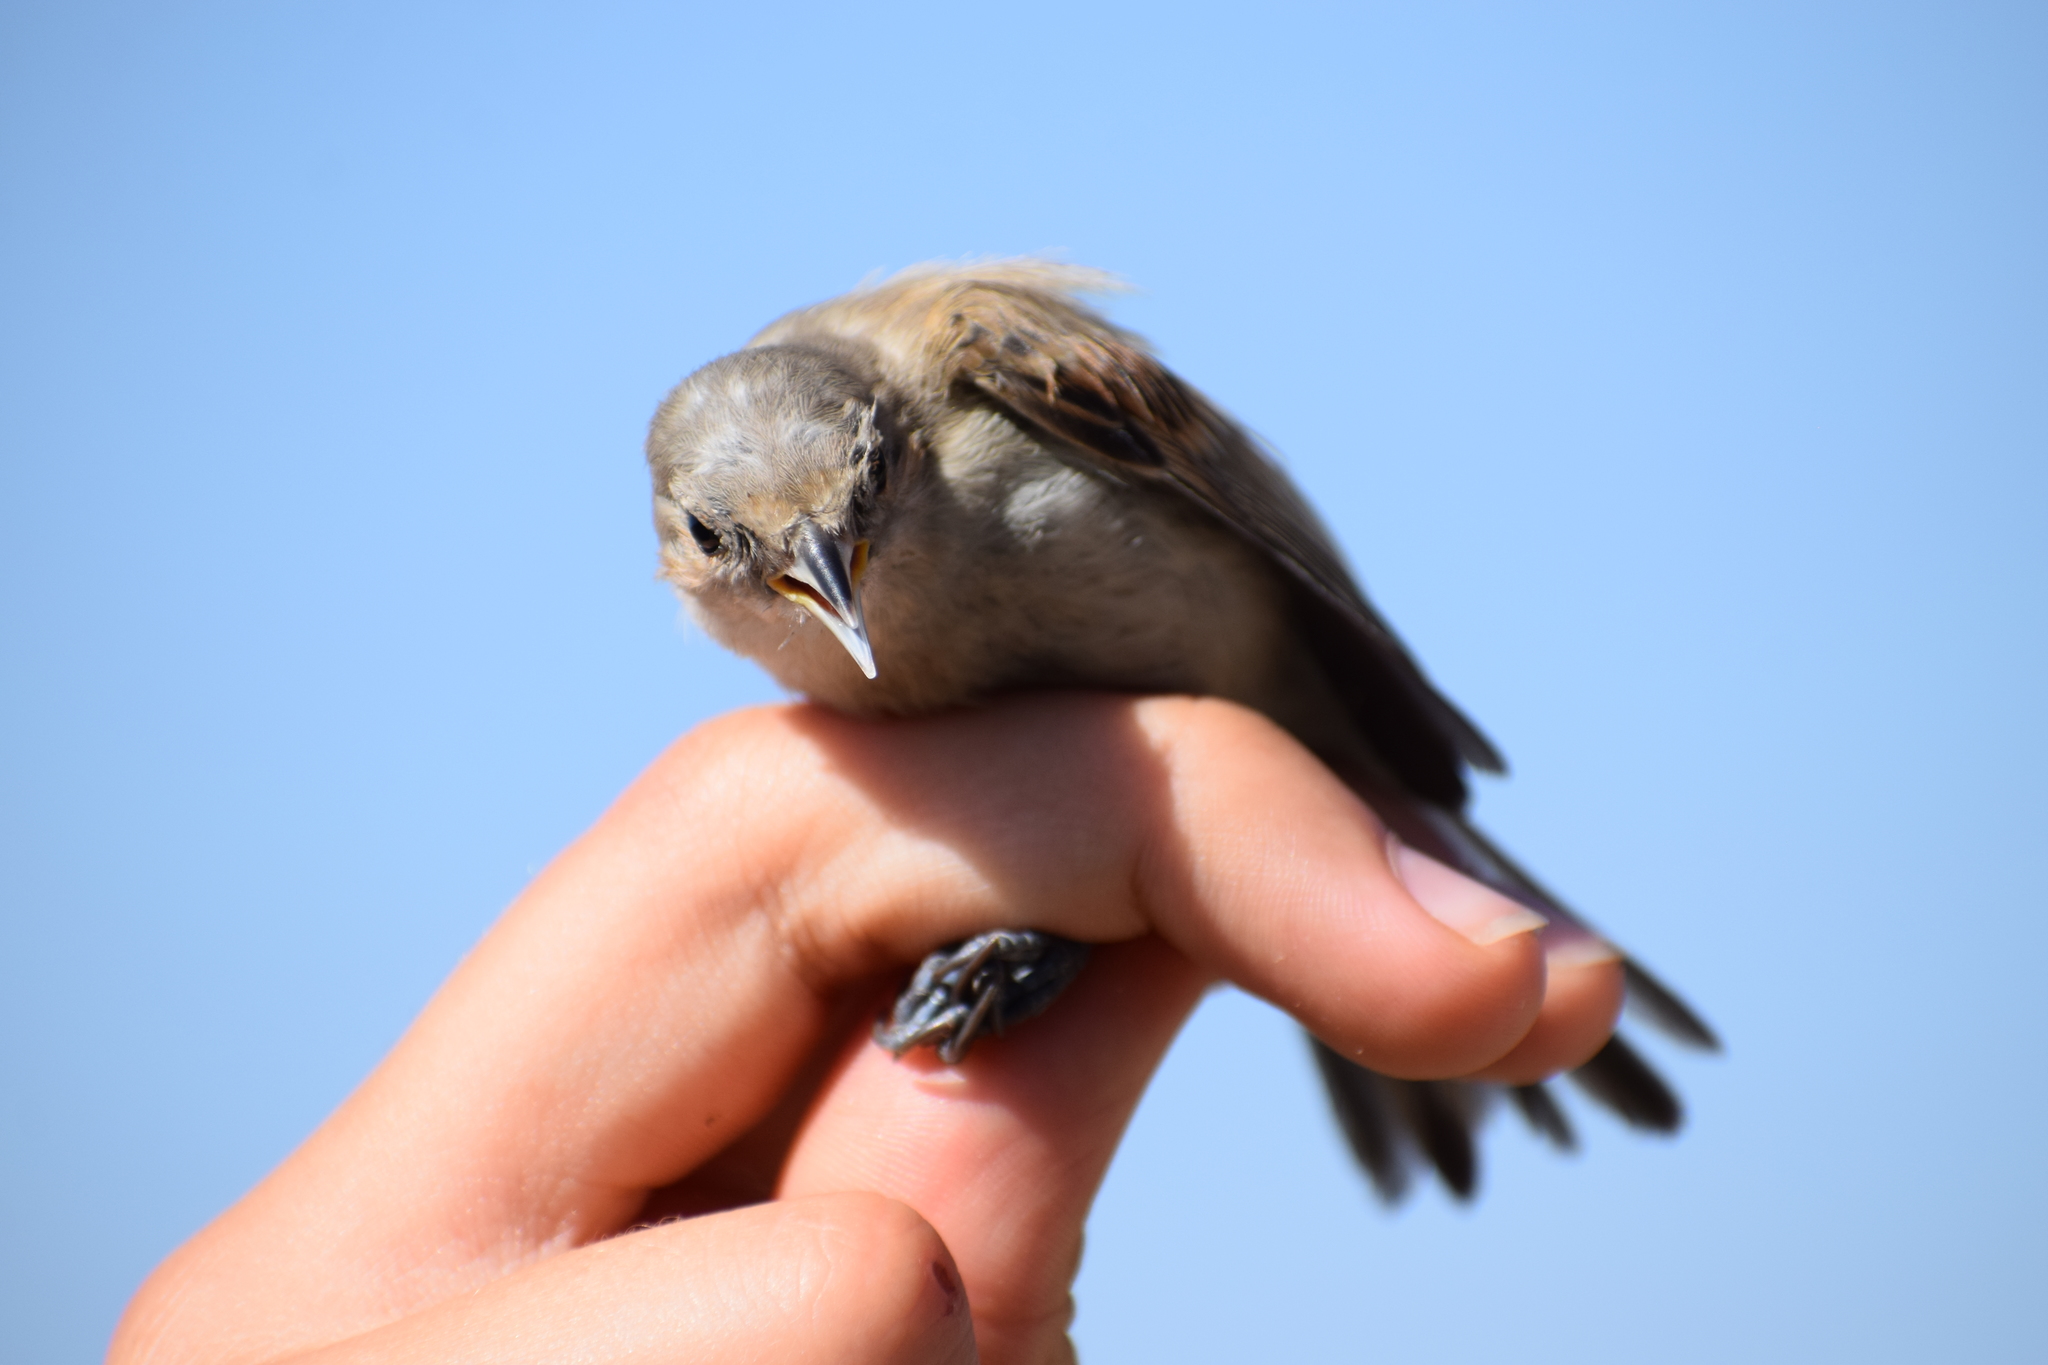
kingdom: Animalia
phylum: Chordata
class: Aves
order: Passeriformes
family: Sylviidae
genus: Sylvia
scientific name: Sylvia communis
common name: Common whitethroat
